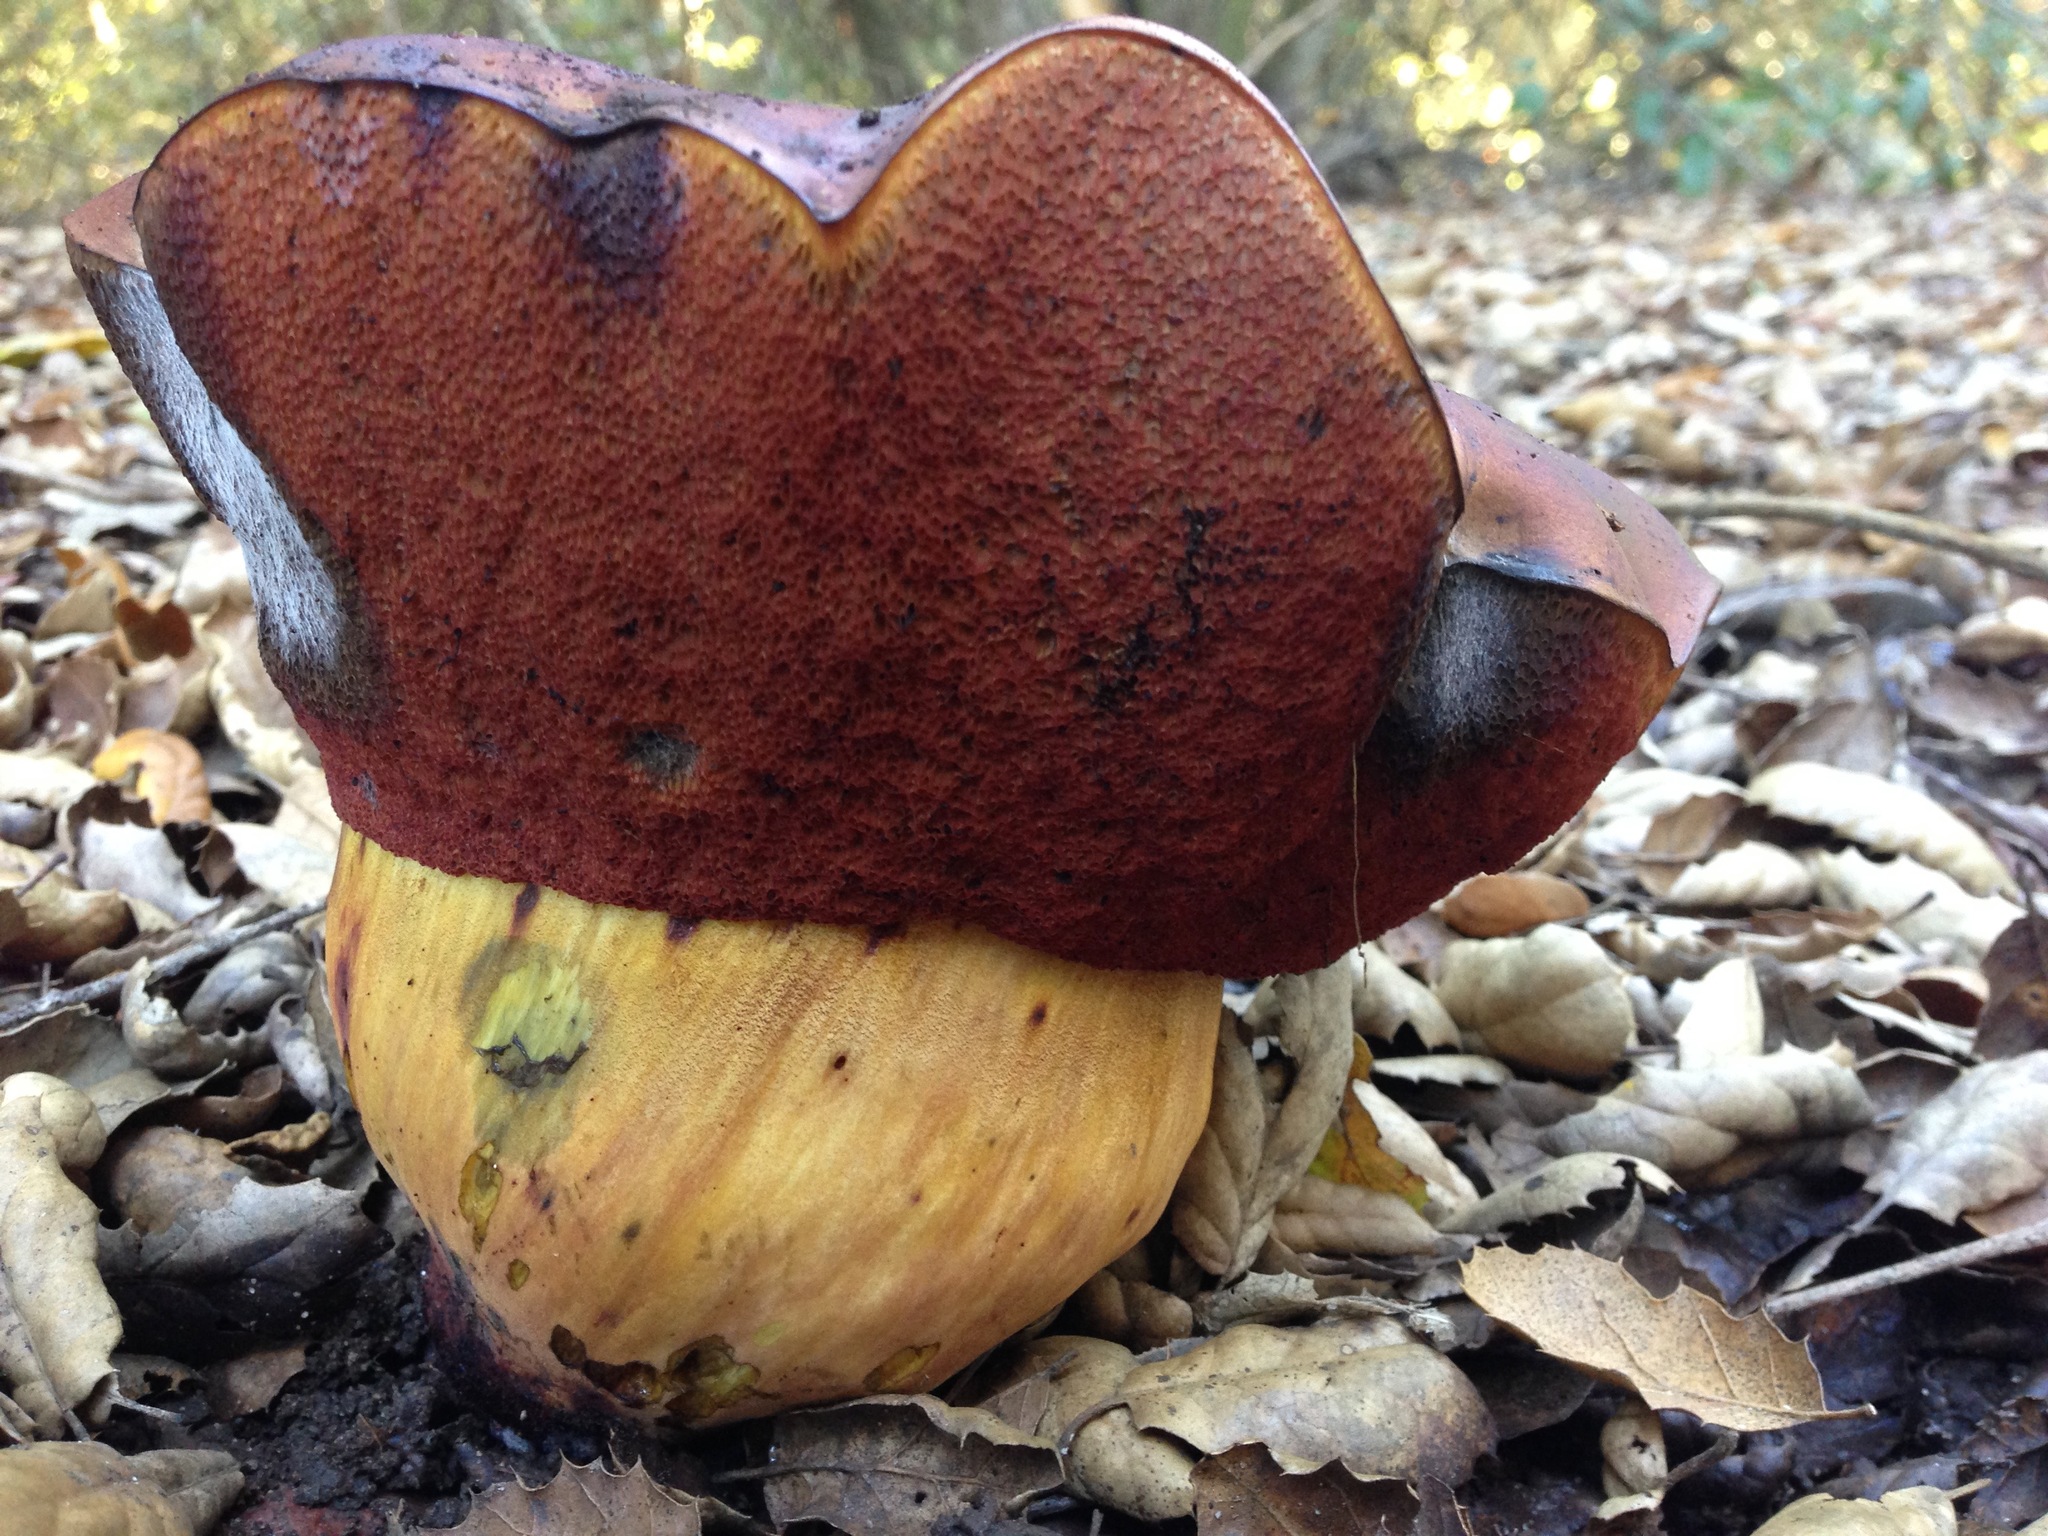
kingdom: Fungi
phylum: Basidiomycota
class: Agaricomycetes
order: Boletales
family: Boletaceae
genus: Suillellus
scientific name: Suillellus amygdalinus
